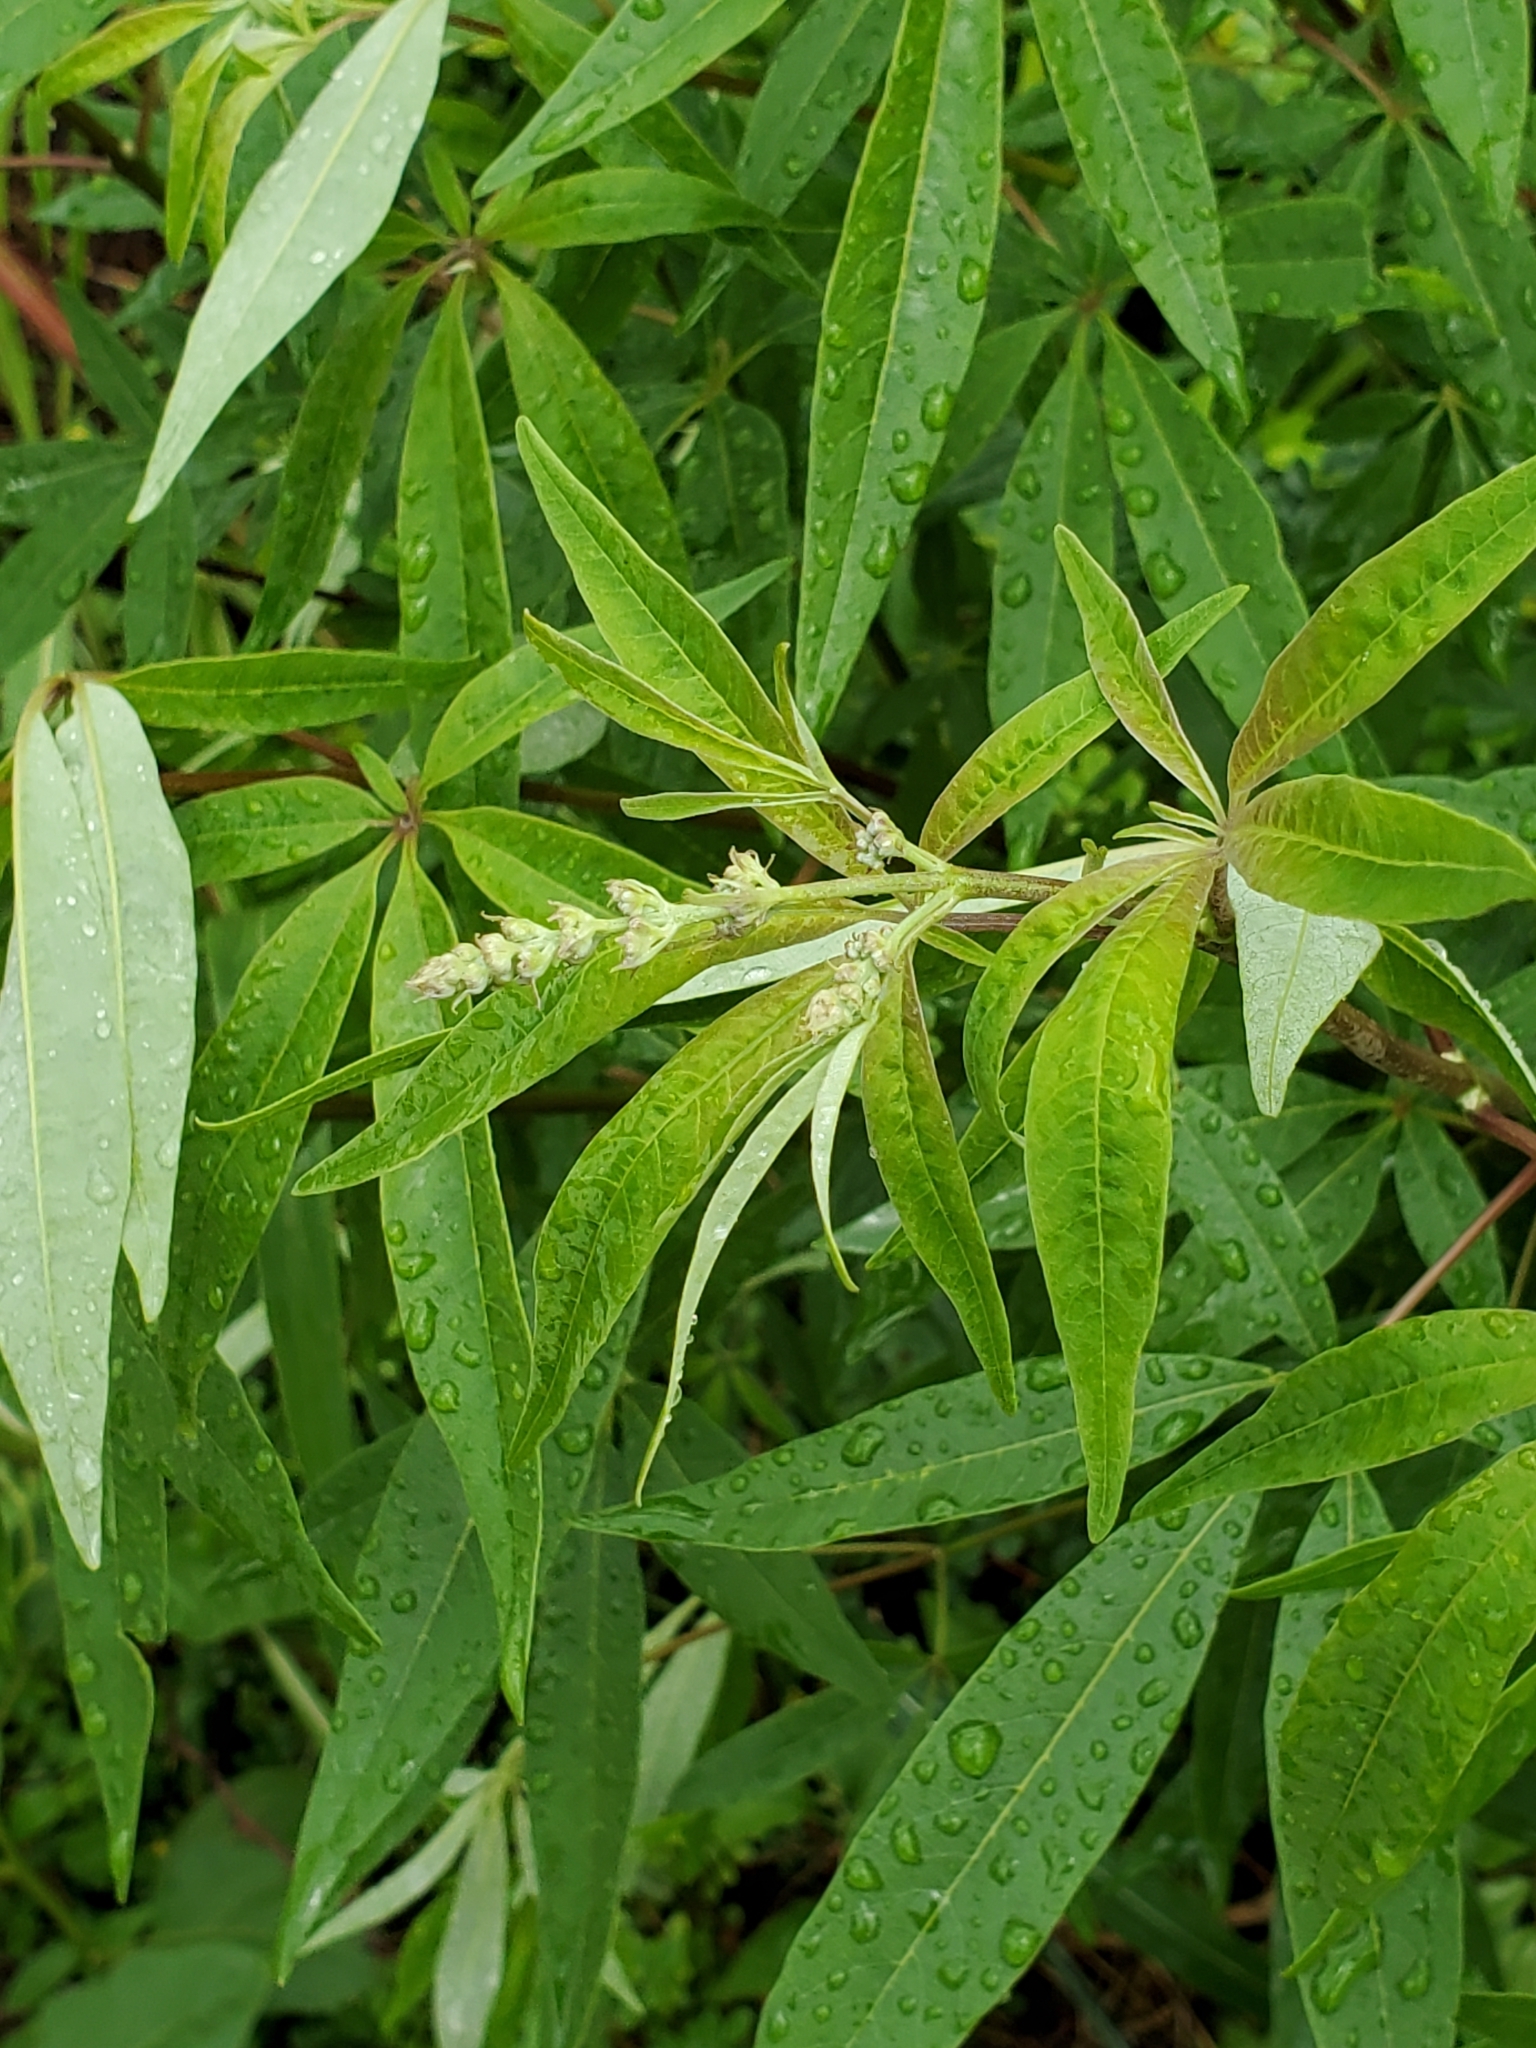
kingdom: Plantae
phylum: Tracheophyta
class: Magnoliopsida
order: Lamiales
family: Lamiaceae
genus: Vitex
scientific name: Vitex agnus-castus
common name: Chasteberry
